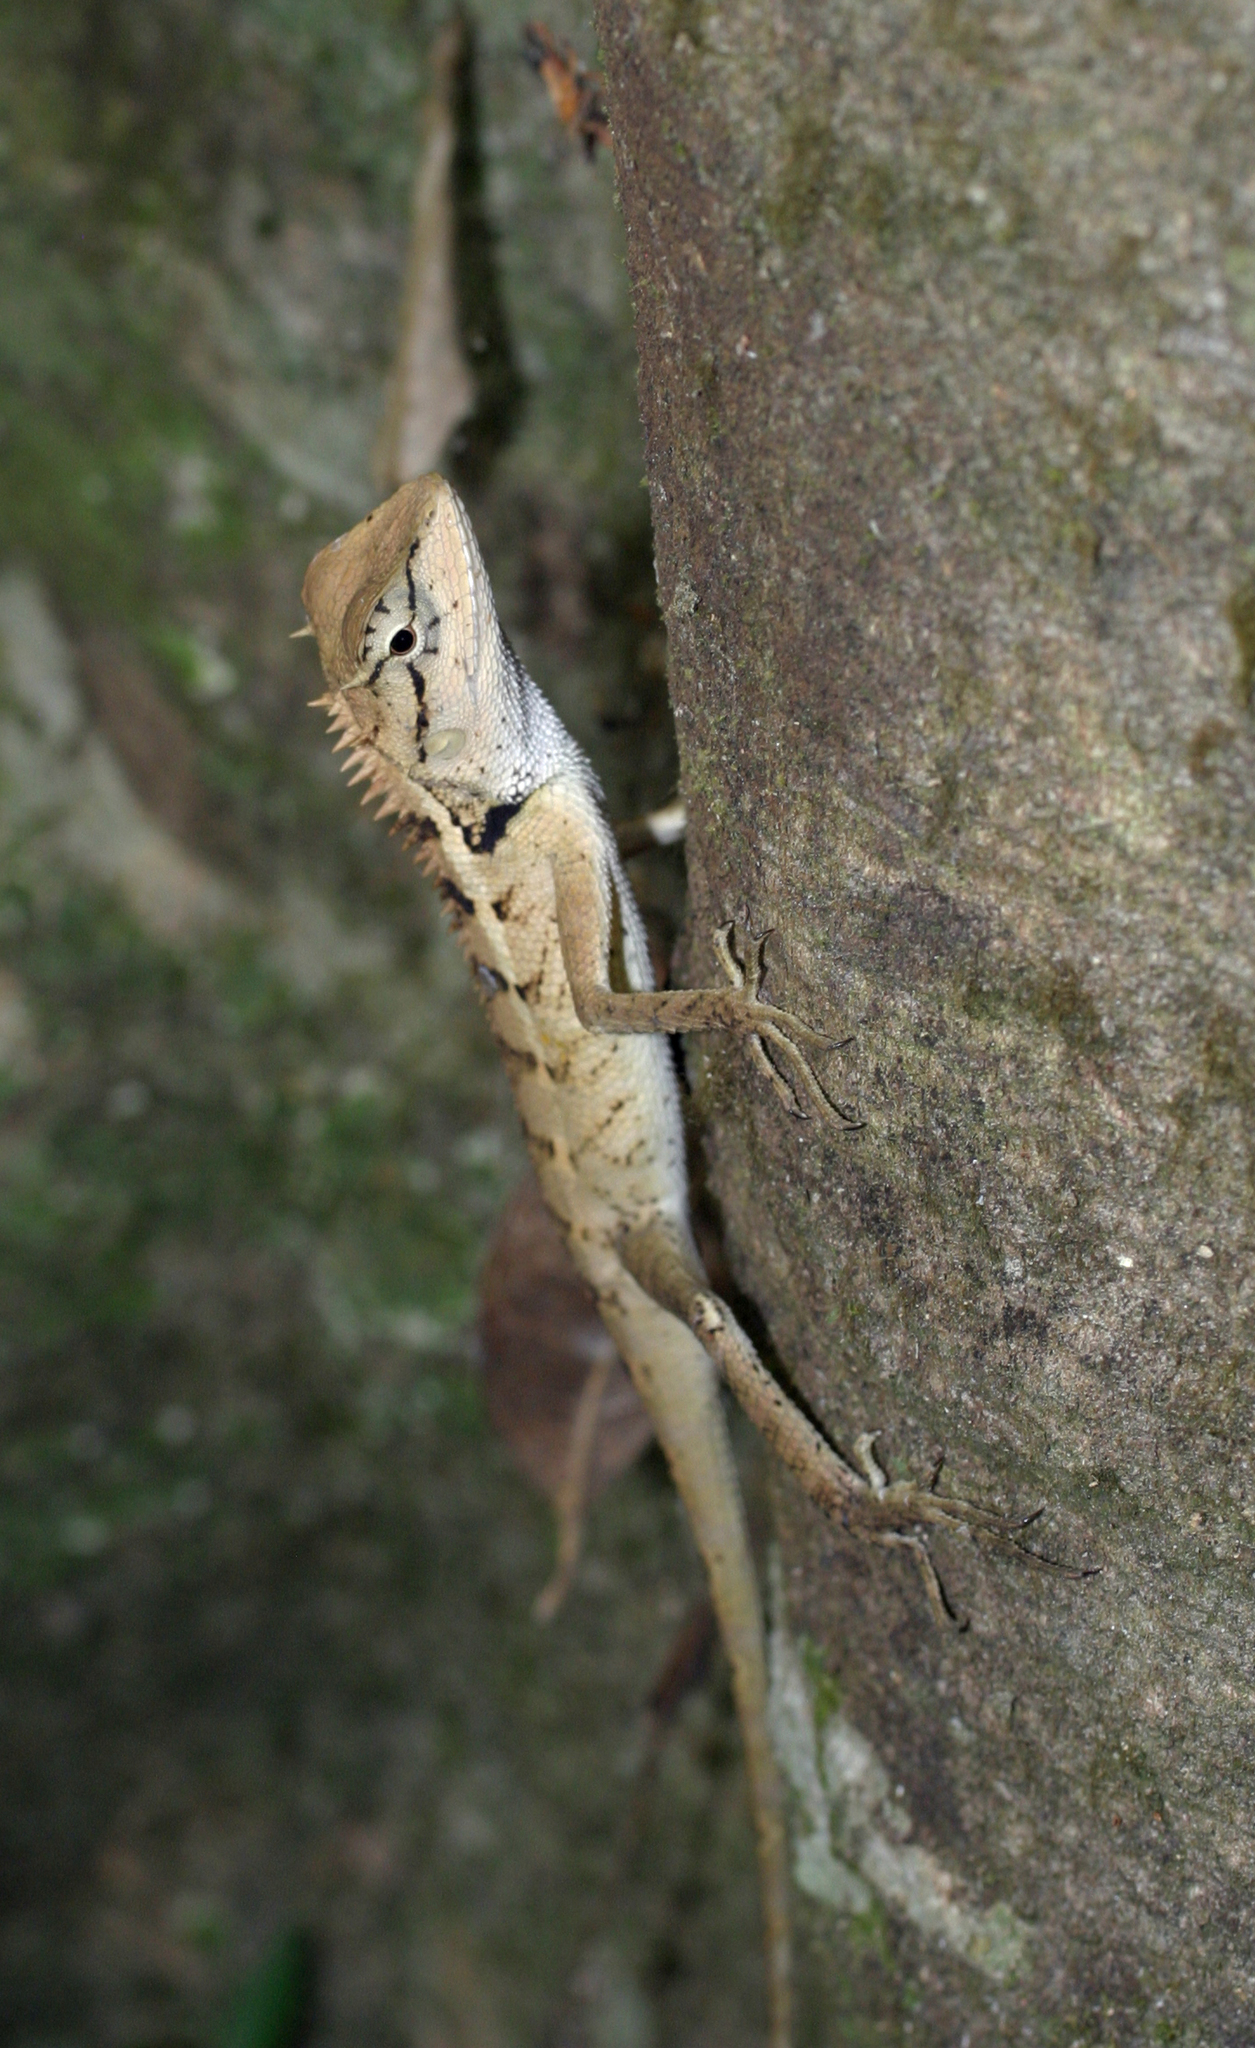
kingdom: Animalia
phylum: Chordata
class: Squamata
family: Agamidae
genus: Calotes
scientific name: Calotes emma
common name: Thailand bloodsucker
